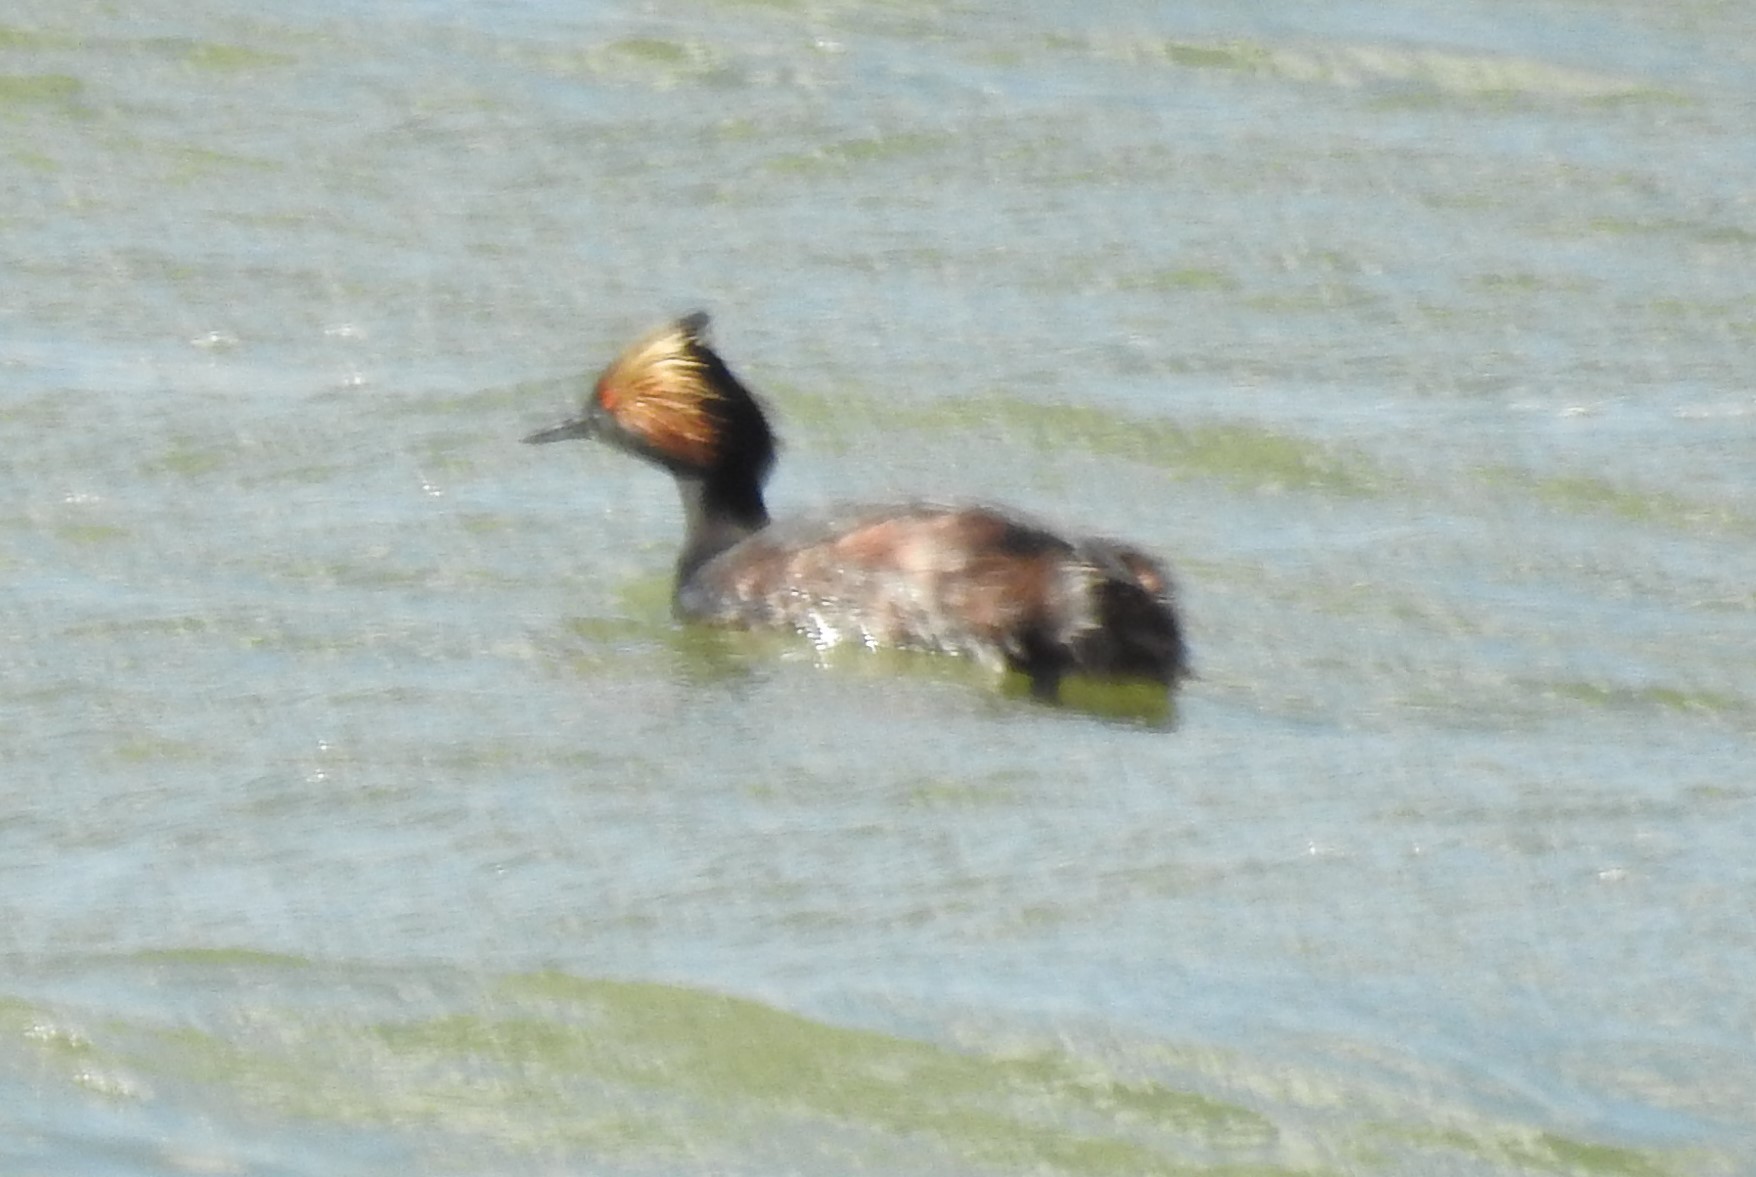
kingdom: Animalia
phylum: Chordata
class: Aves
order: Podicipediformes
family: Podicipedidae
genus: Podiceps
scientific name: Podiceps nigricollis
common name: Black-necked grebe
